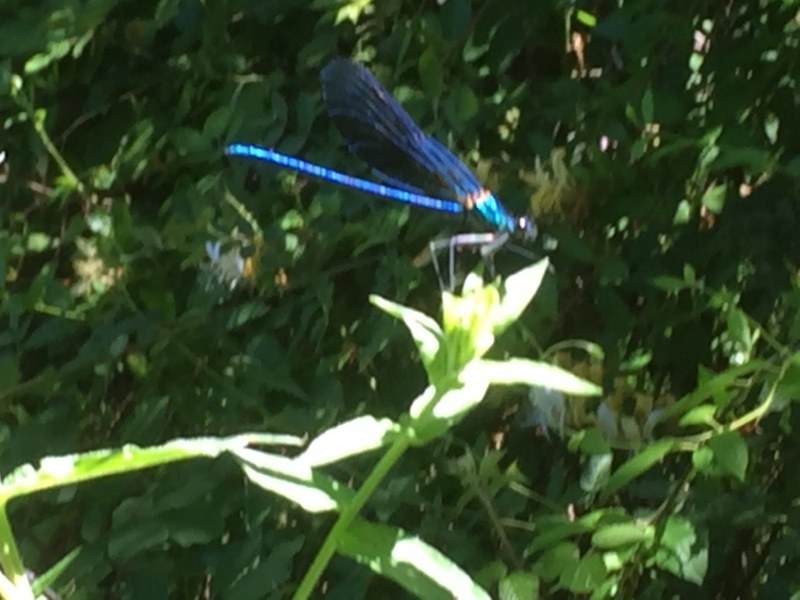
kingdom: Animalia
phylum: Arthropoda
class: Insecta
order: Odonata
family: Calopterygidae
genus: Calopteryx
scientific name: Calopteryx virgo
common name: Beautiful demoiselle
